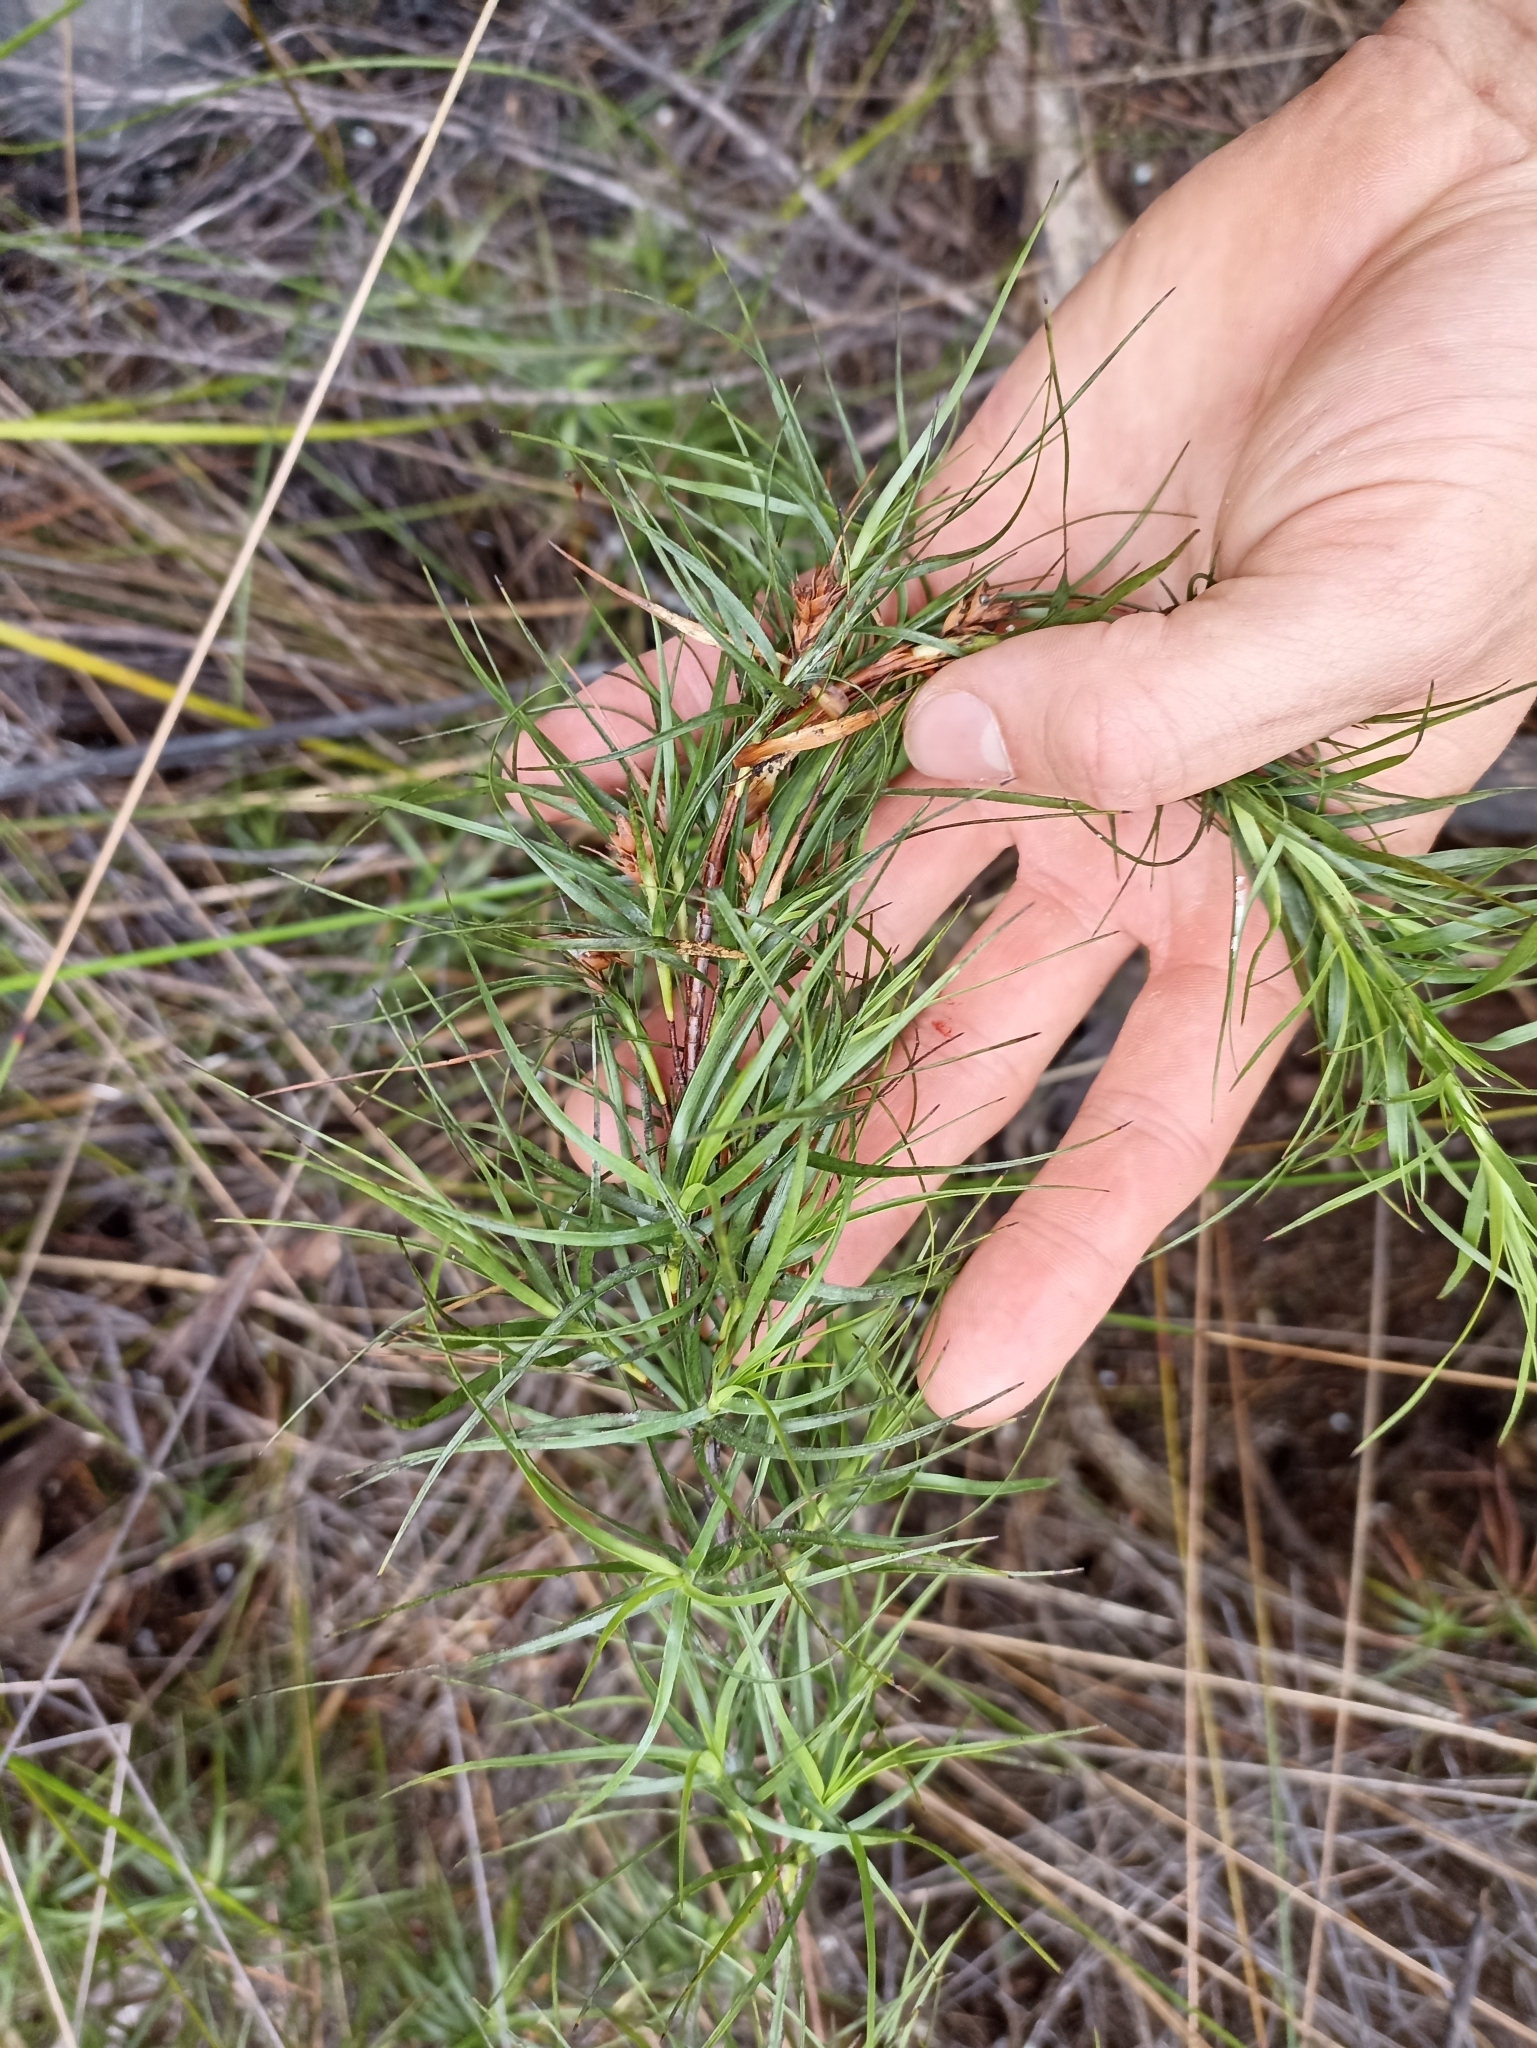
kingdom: Plantae
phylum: Tracheophyta
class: Magnoliopsida
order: Ericales
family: Ericaceae
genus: Dracophyllum
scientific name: Dracophyllum sinclairii
